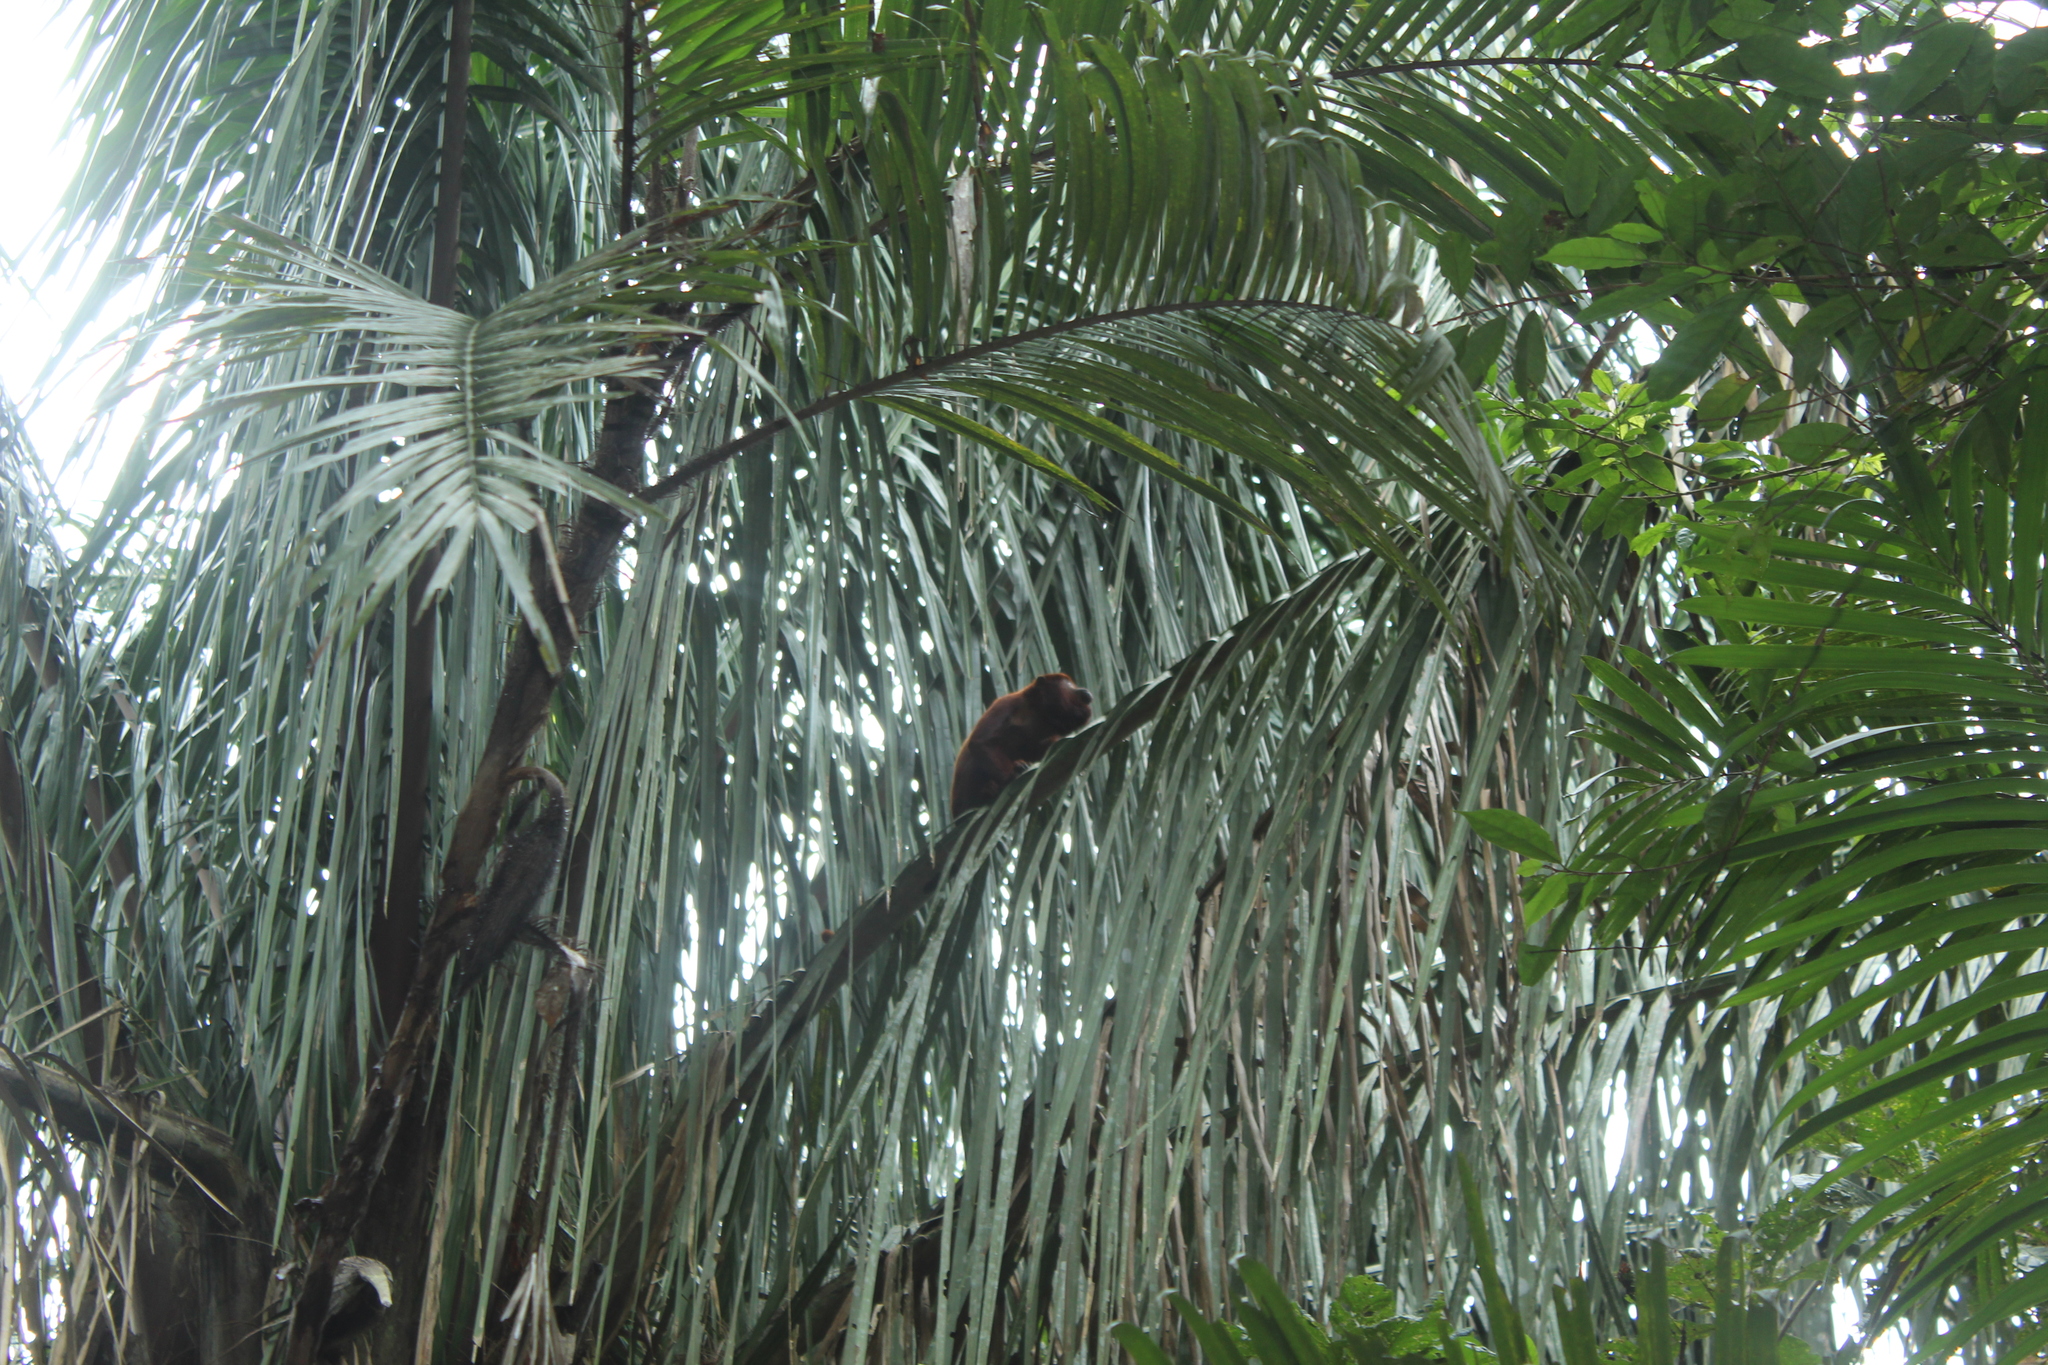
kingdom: Animalia
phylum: Chordata
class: Mammalia
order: Primates
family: Atelidae
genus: Alouatta
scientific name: Alouatta seniculus
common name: Venezuelan red howler
